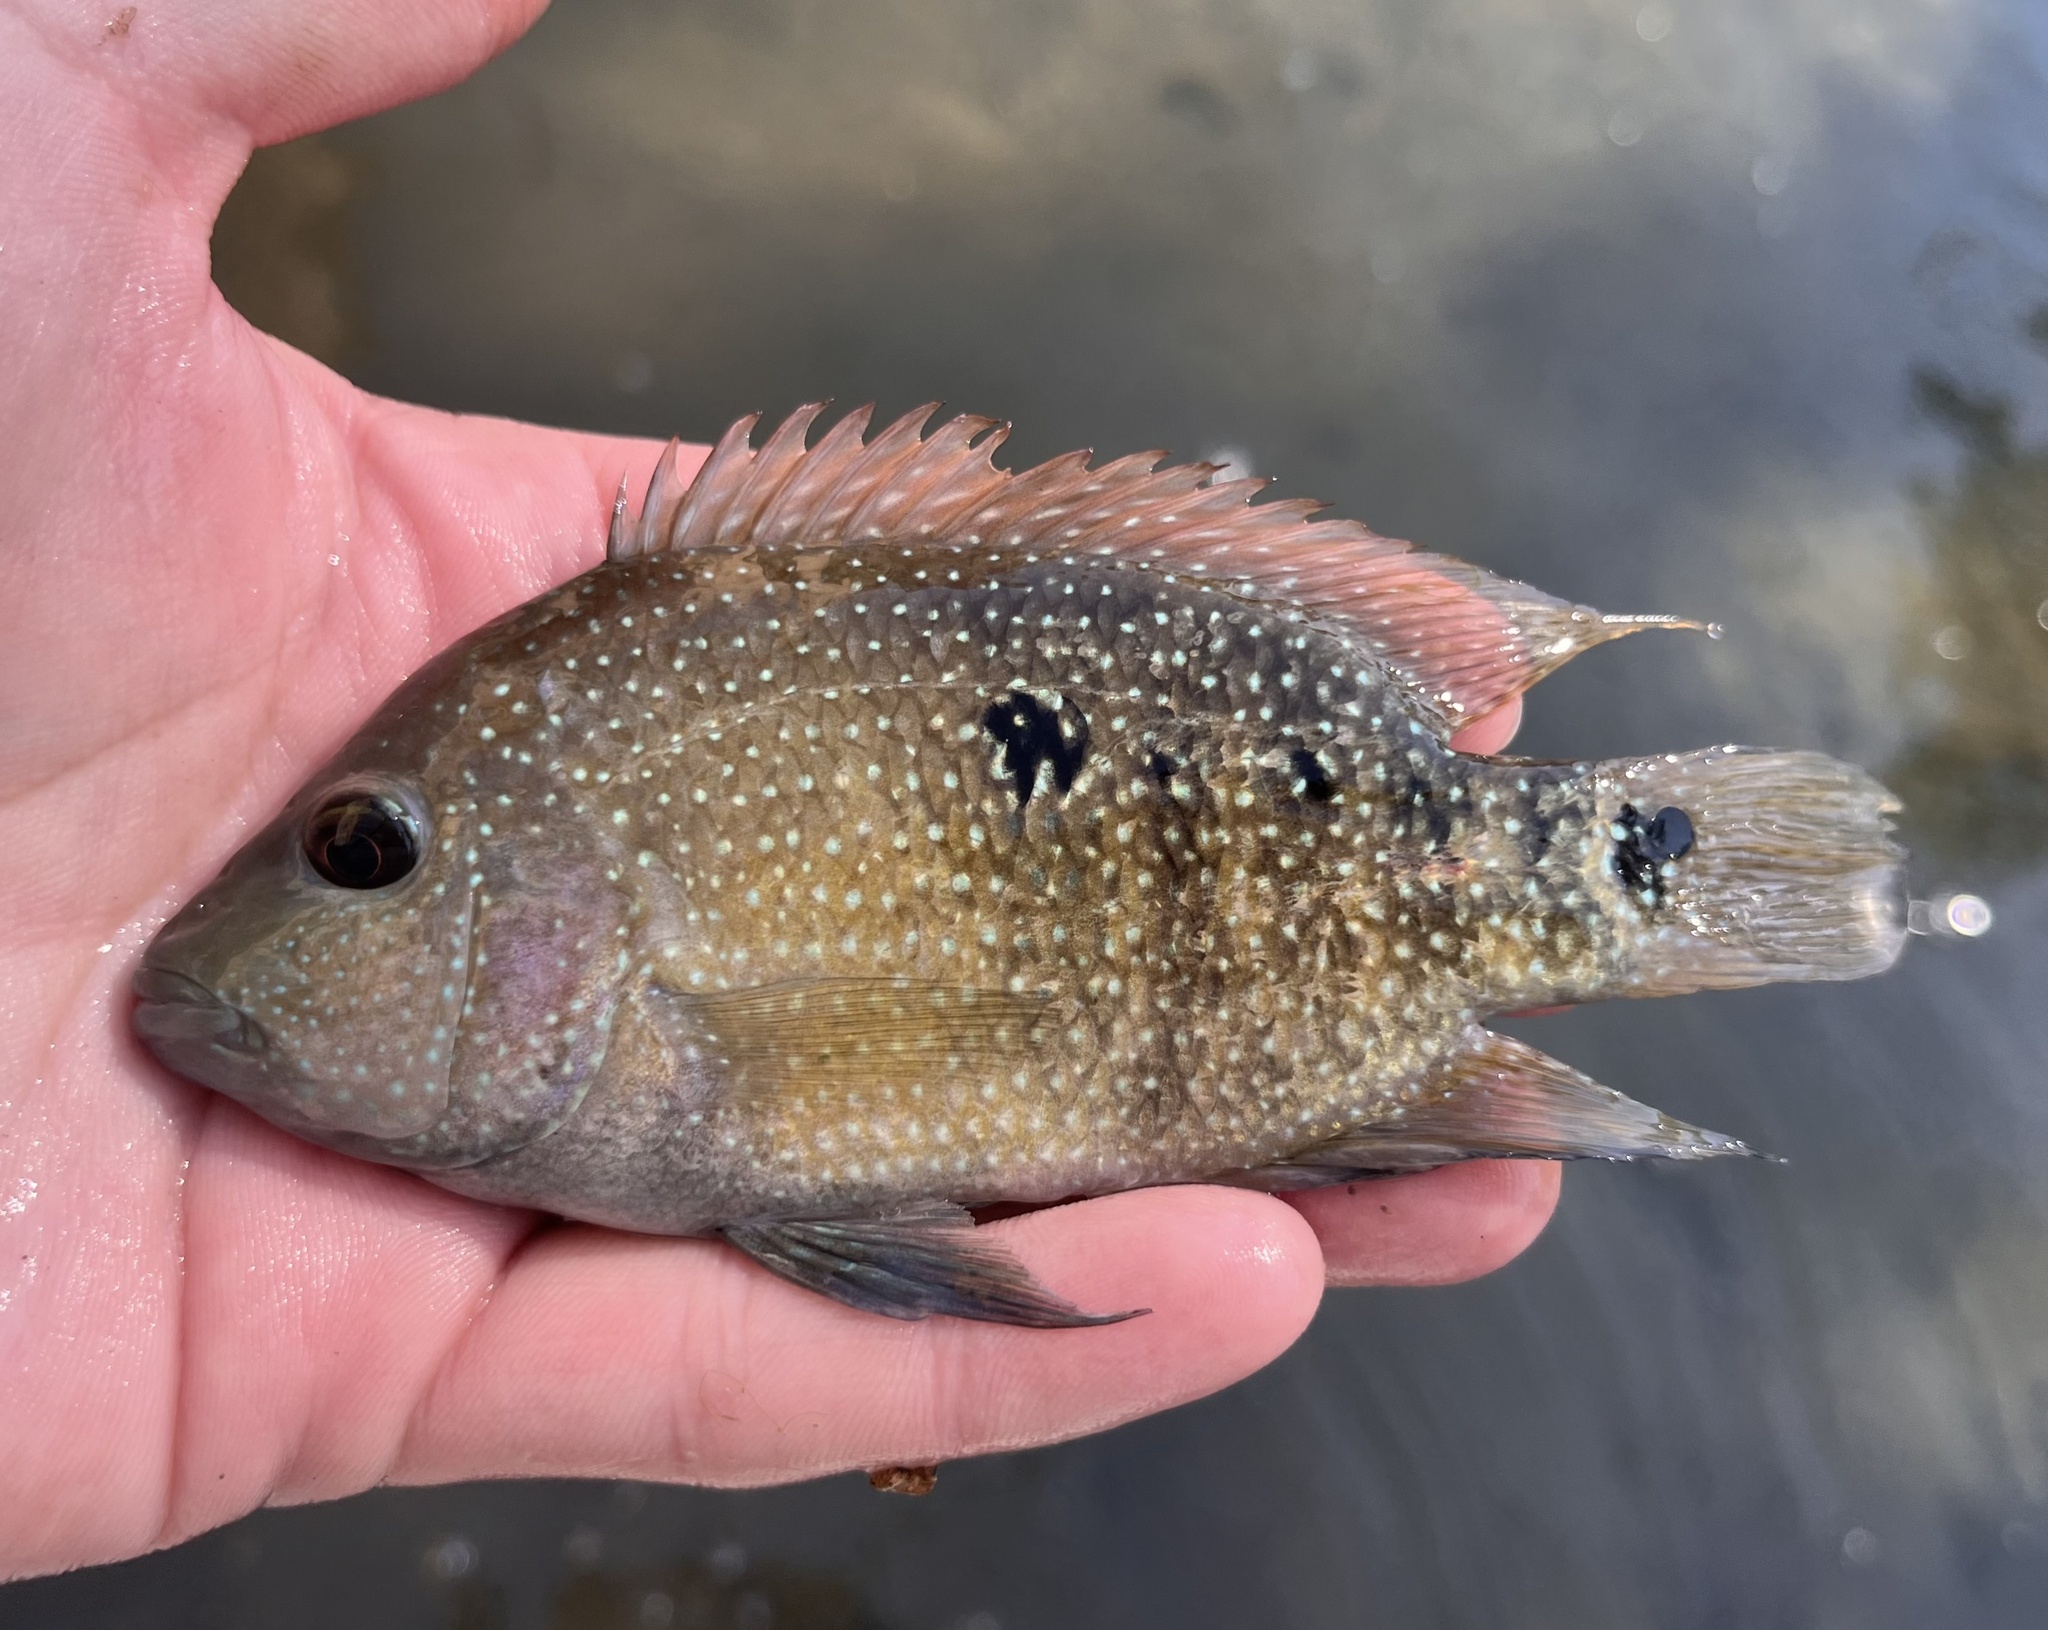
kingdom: Animalia
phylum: Chordata
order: Perciformes
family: Cichlidae
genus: Herichthys
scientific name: Herichthys cyanoguttatus
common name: Rio grande cichlid
